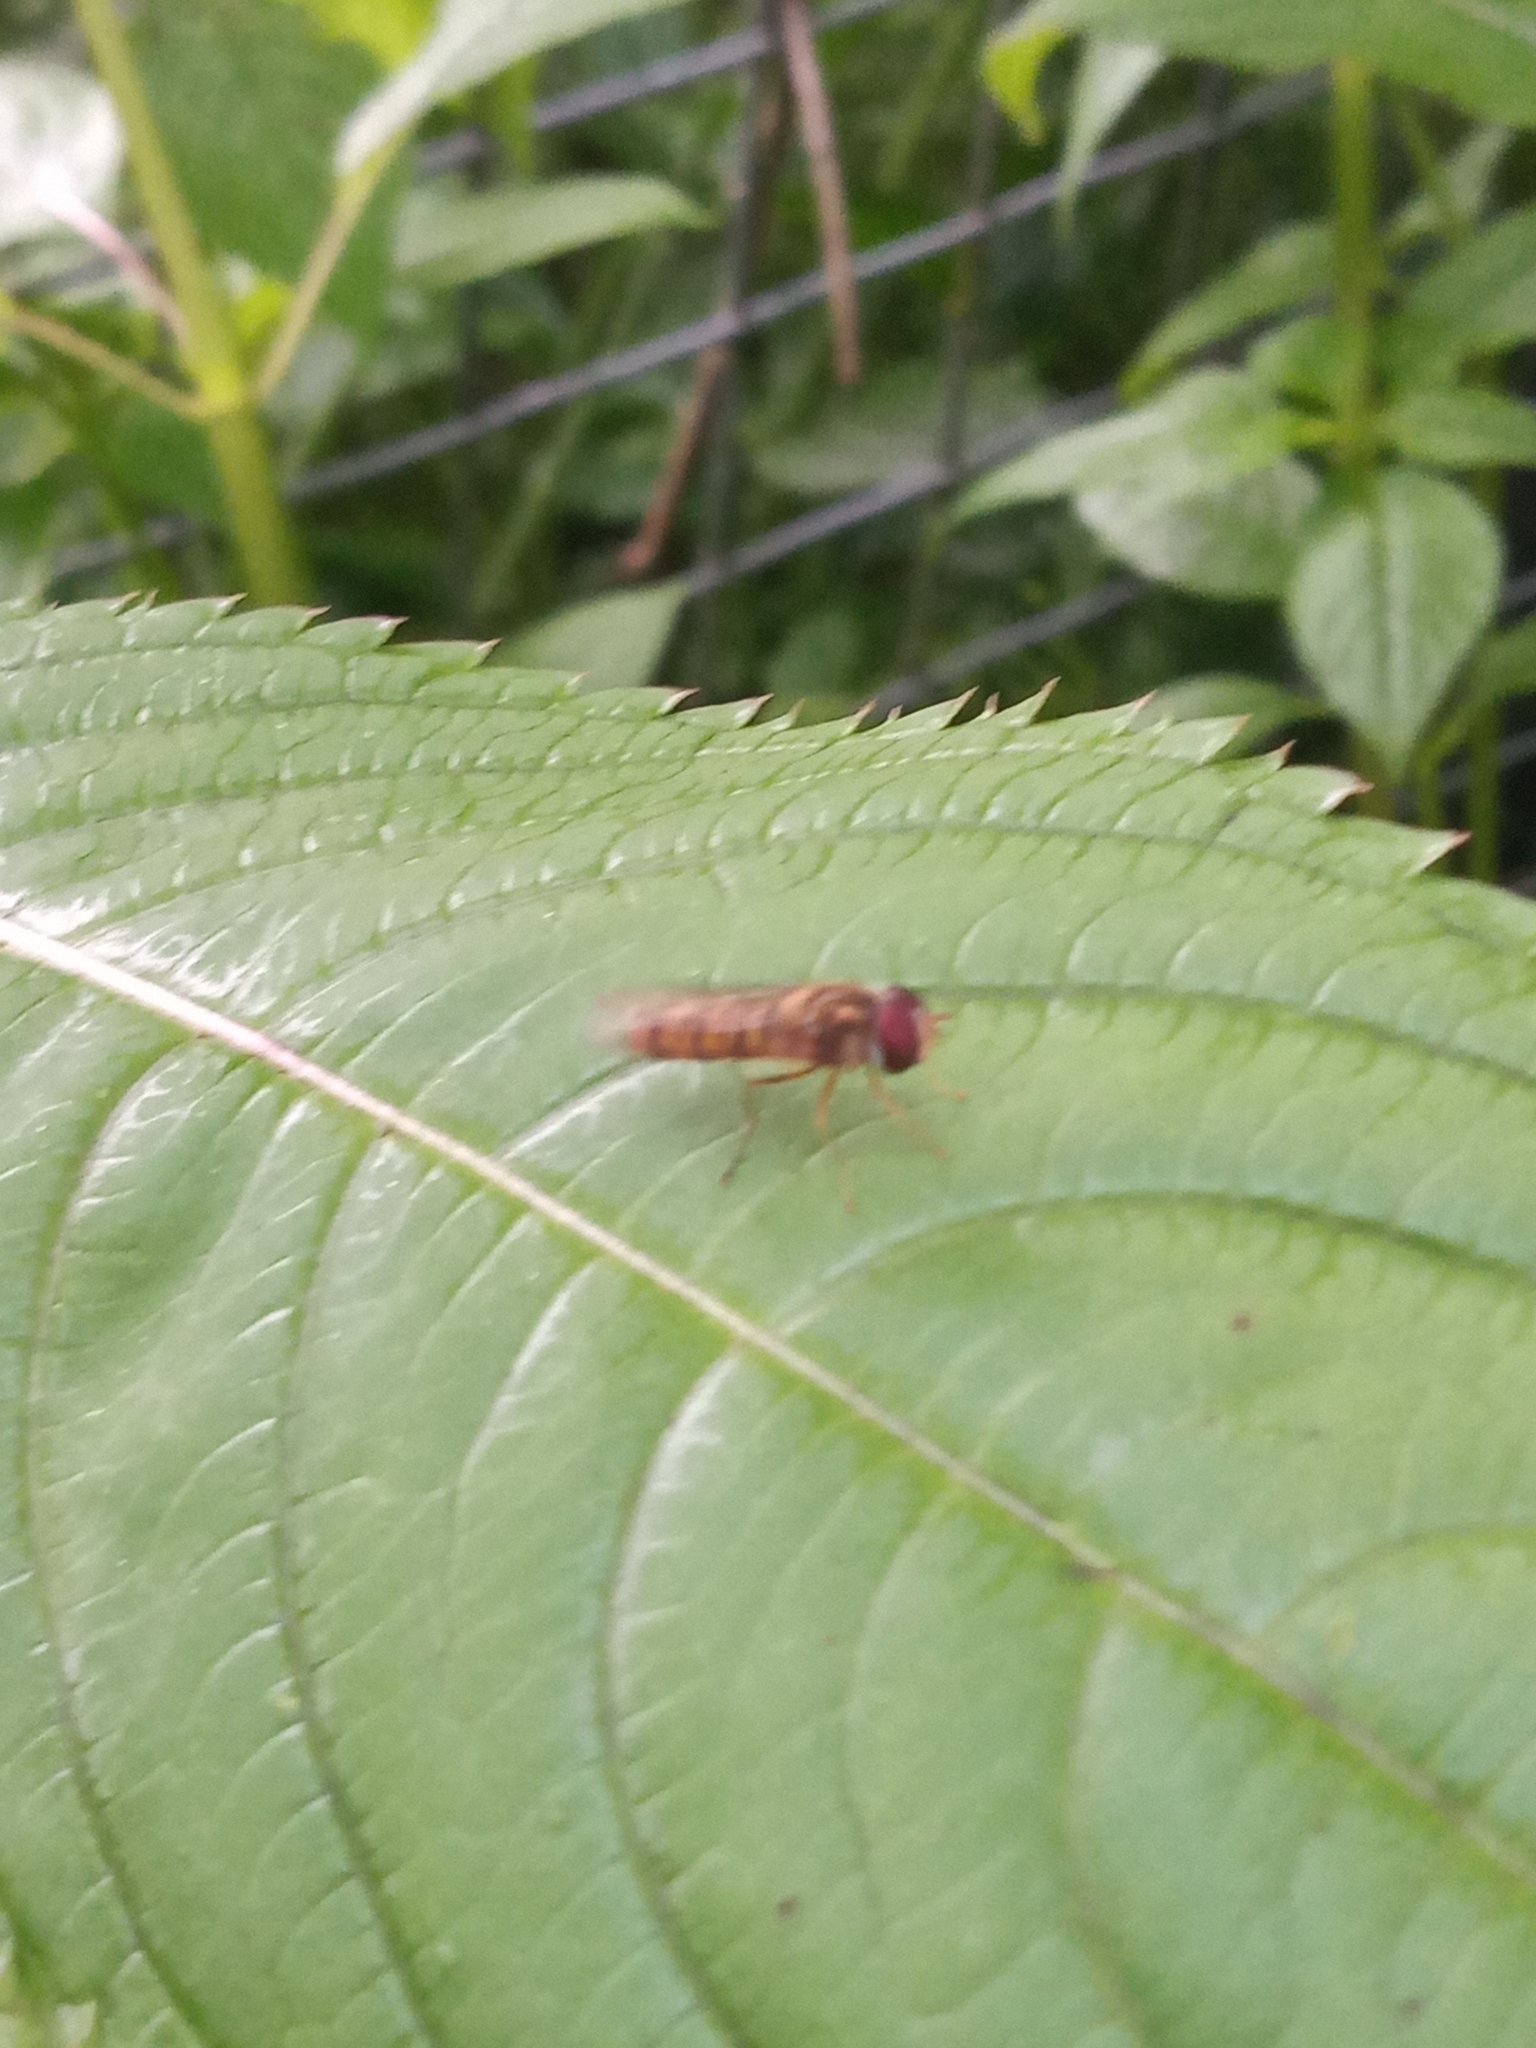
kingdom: Animalia
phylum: Arthropoda
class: Insecta
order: Diptera
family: Syrphidae
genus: Episyrphus
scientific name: Episyrphus balteatus
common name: Marmalade hoverfly
